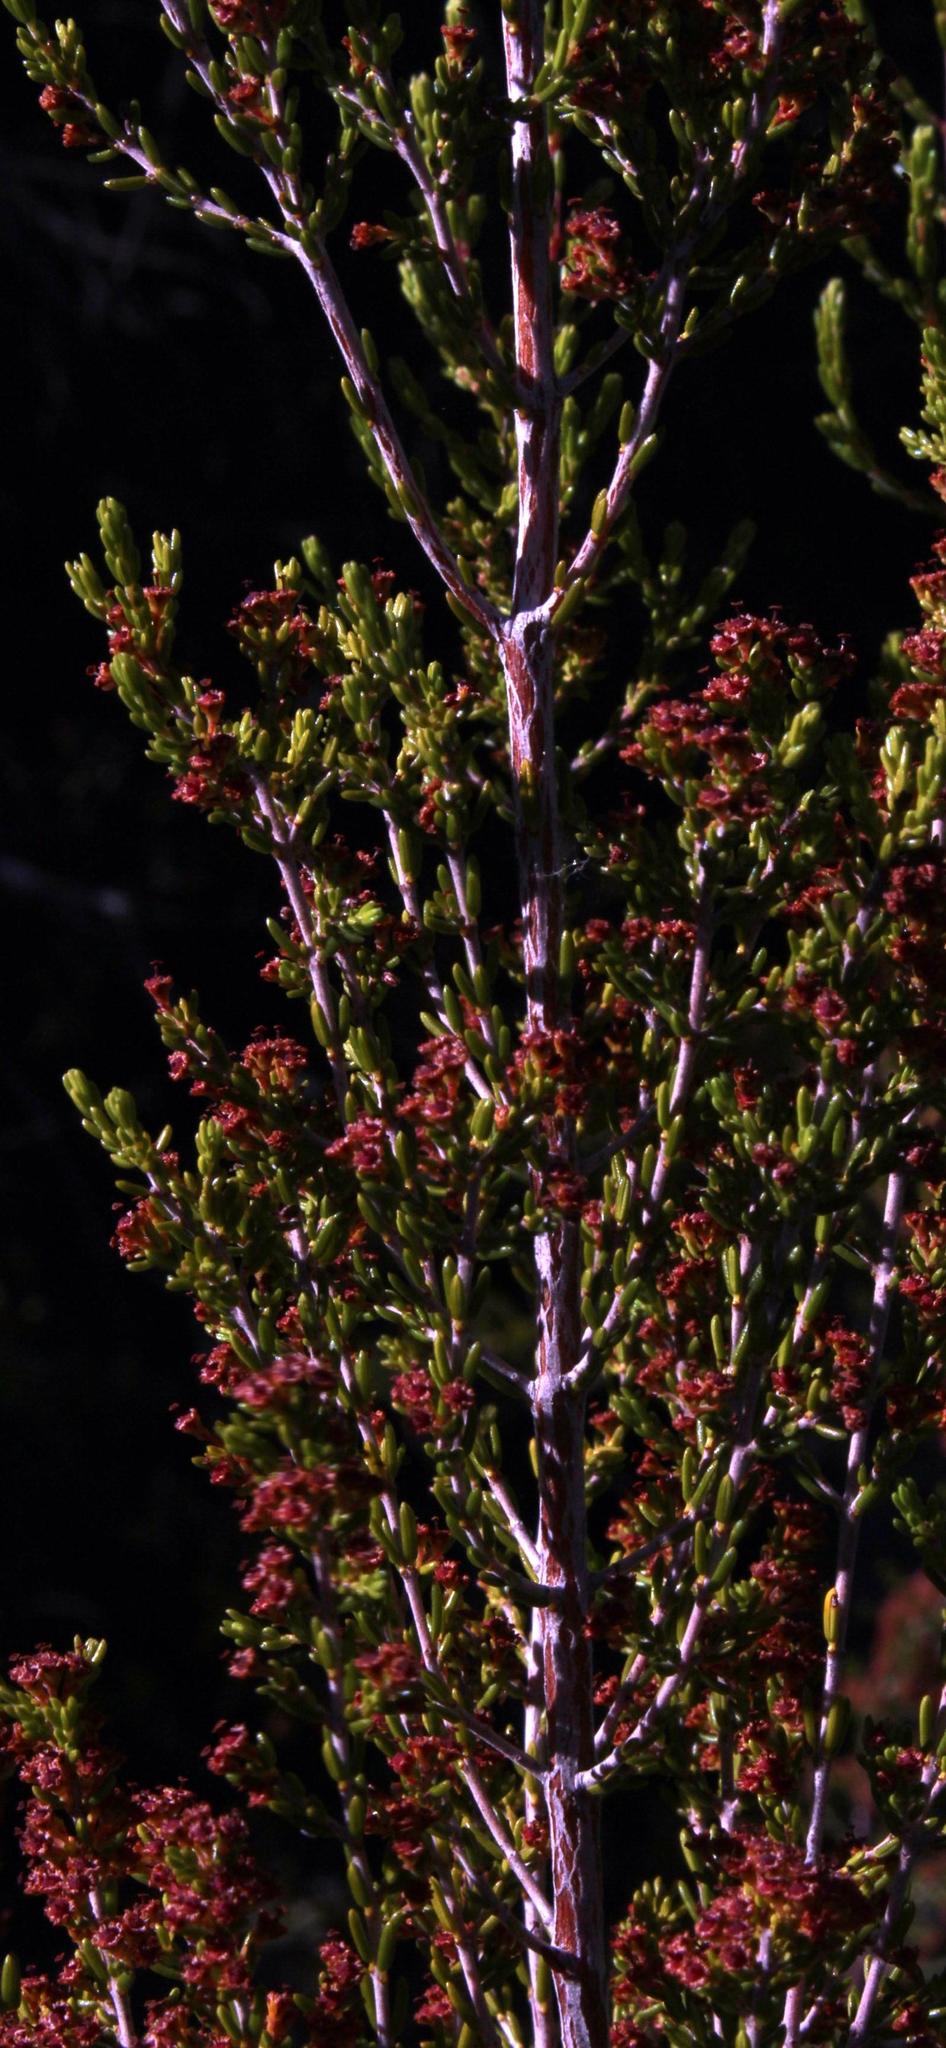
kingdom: Plantae
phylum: Tracheophyta
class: Magnoliopsida
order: Ericales
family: Ericaceae
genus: Erica
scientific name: Erica karooica
